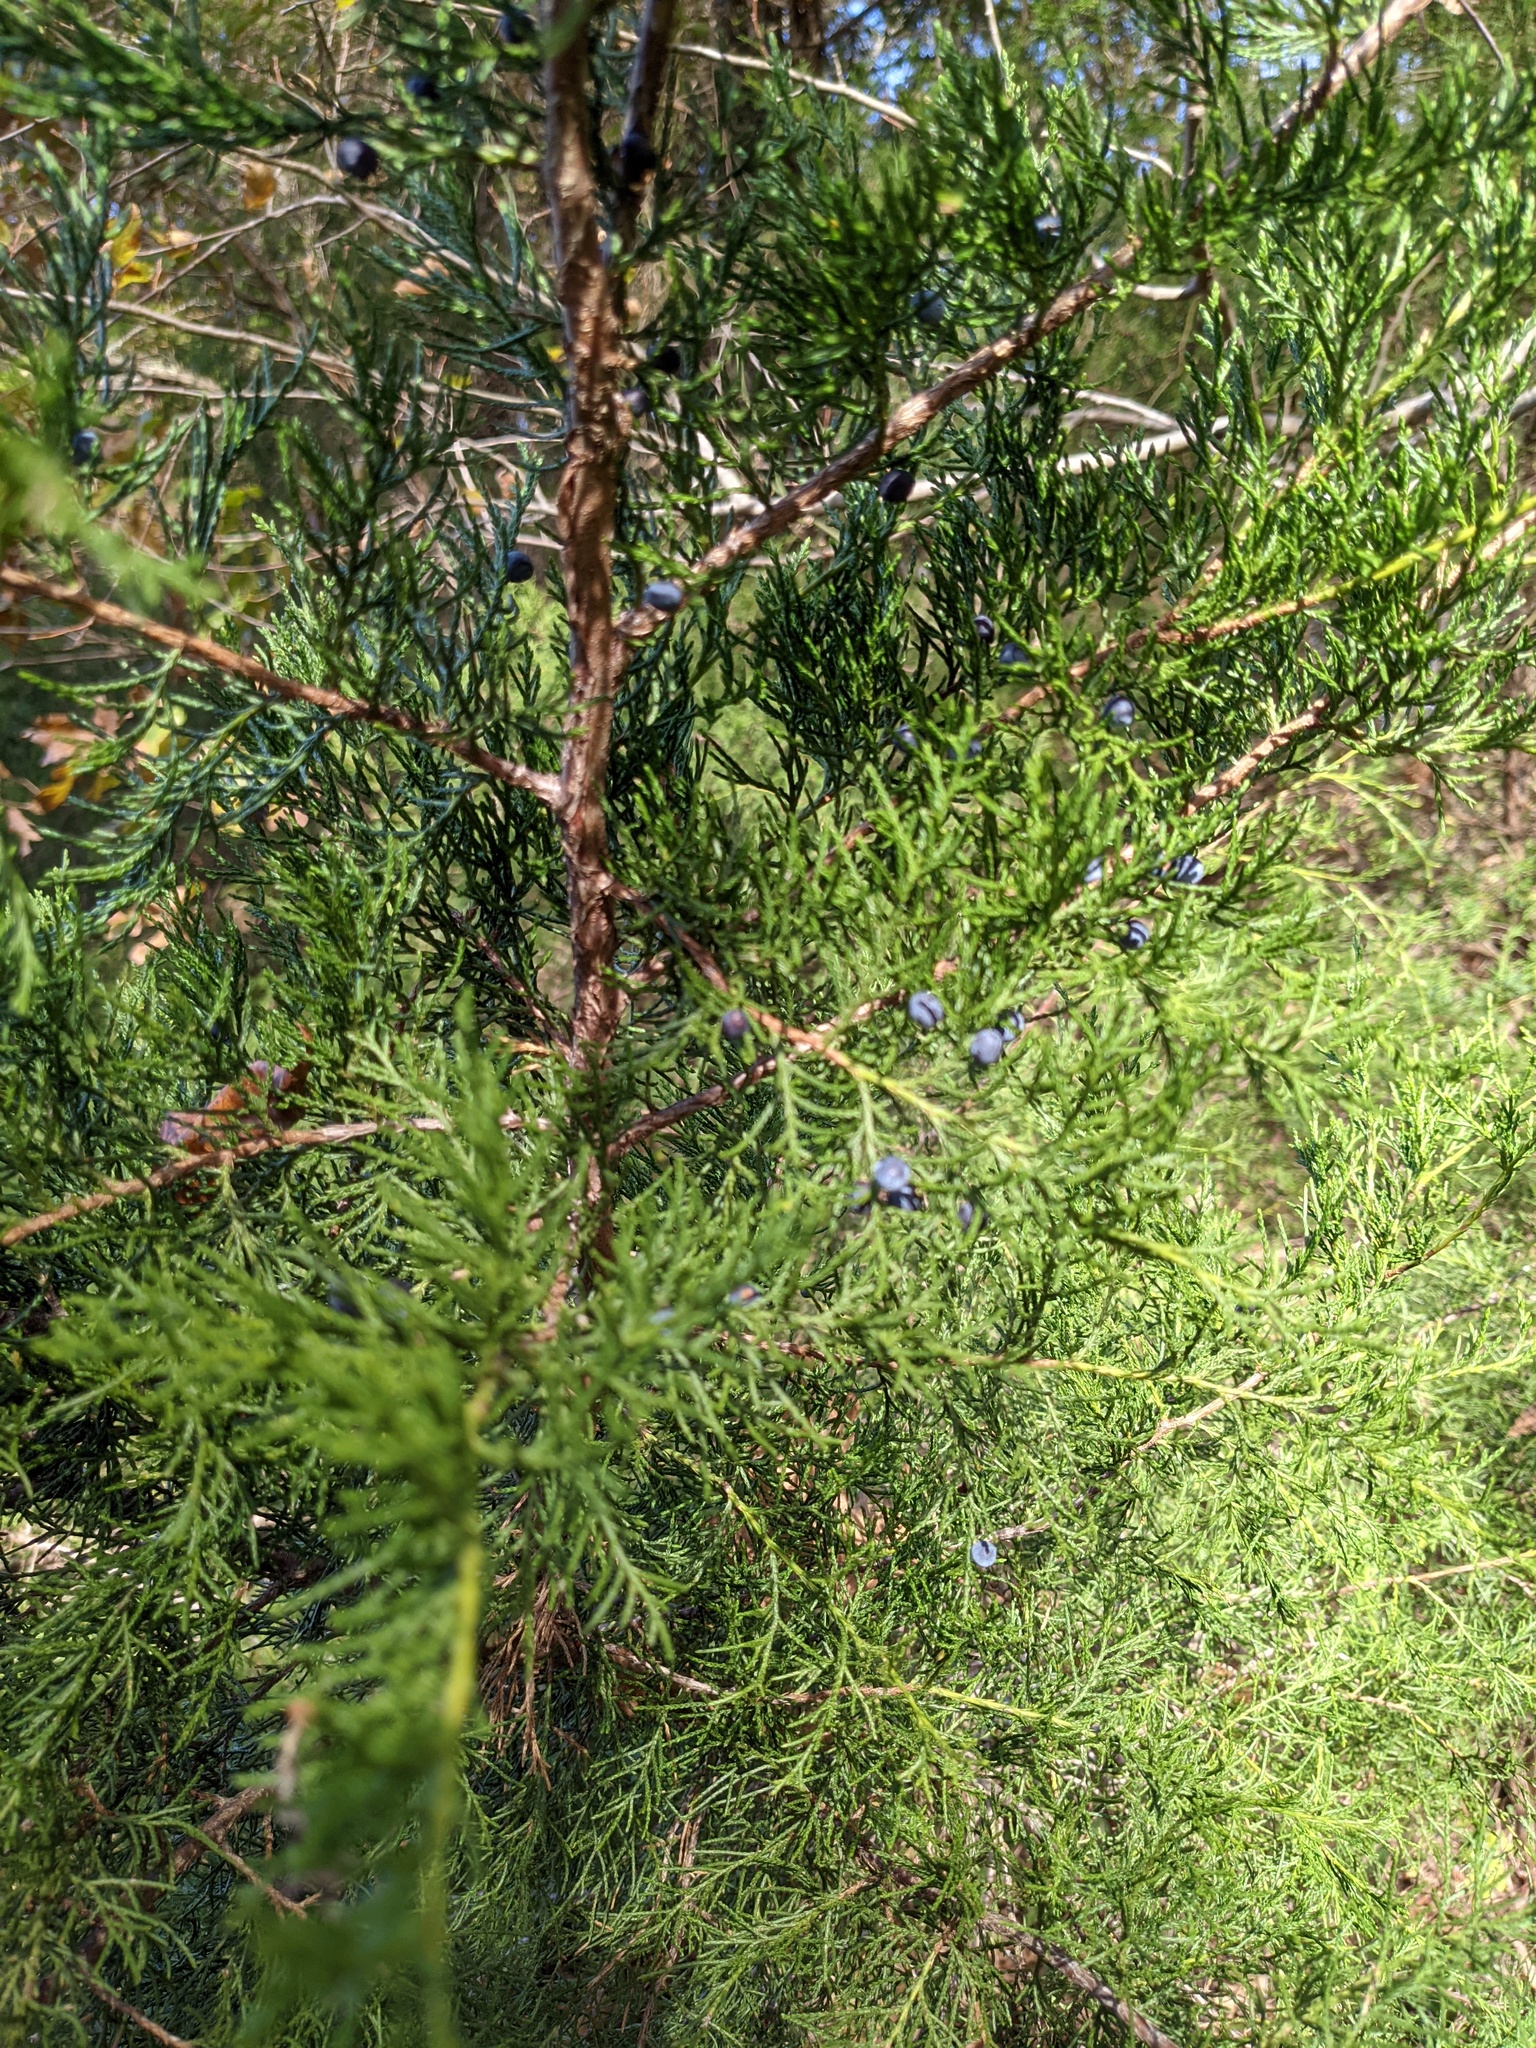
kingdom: Plantae
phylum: Tracheophyta
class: Pinopsida
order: Pinales
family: Cupressaceae
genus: Juniperus
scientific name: Juniperus virginiana
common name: Red juniper
